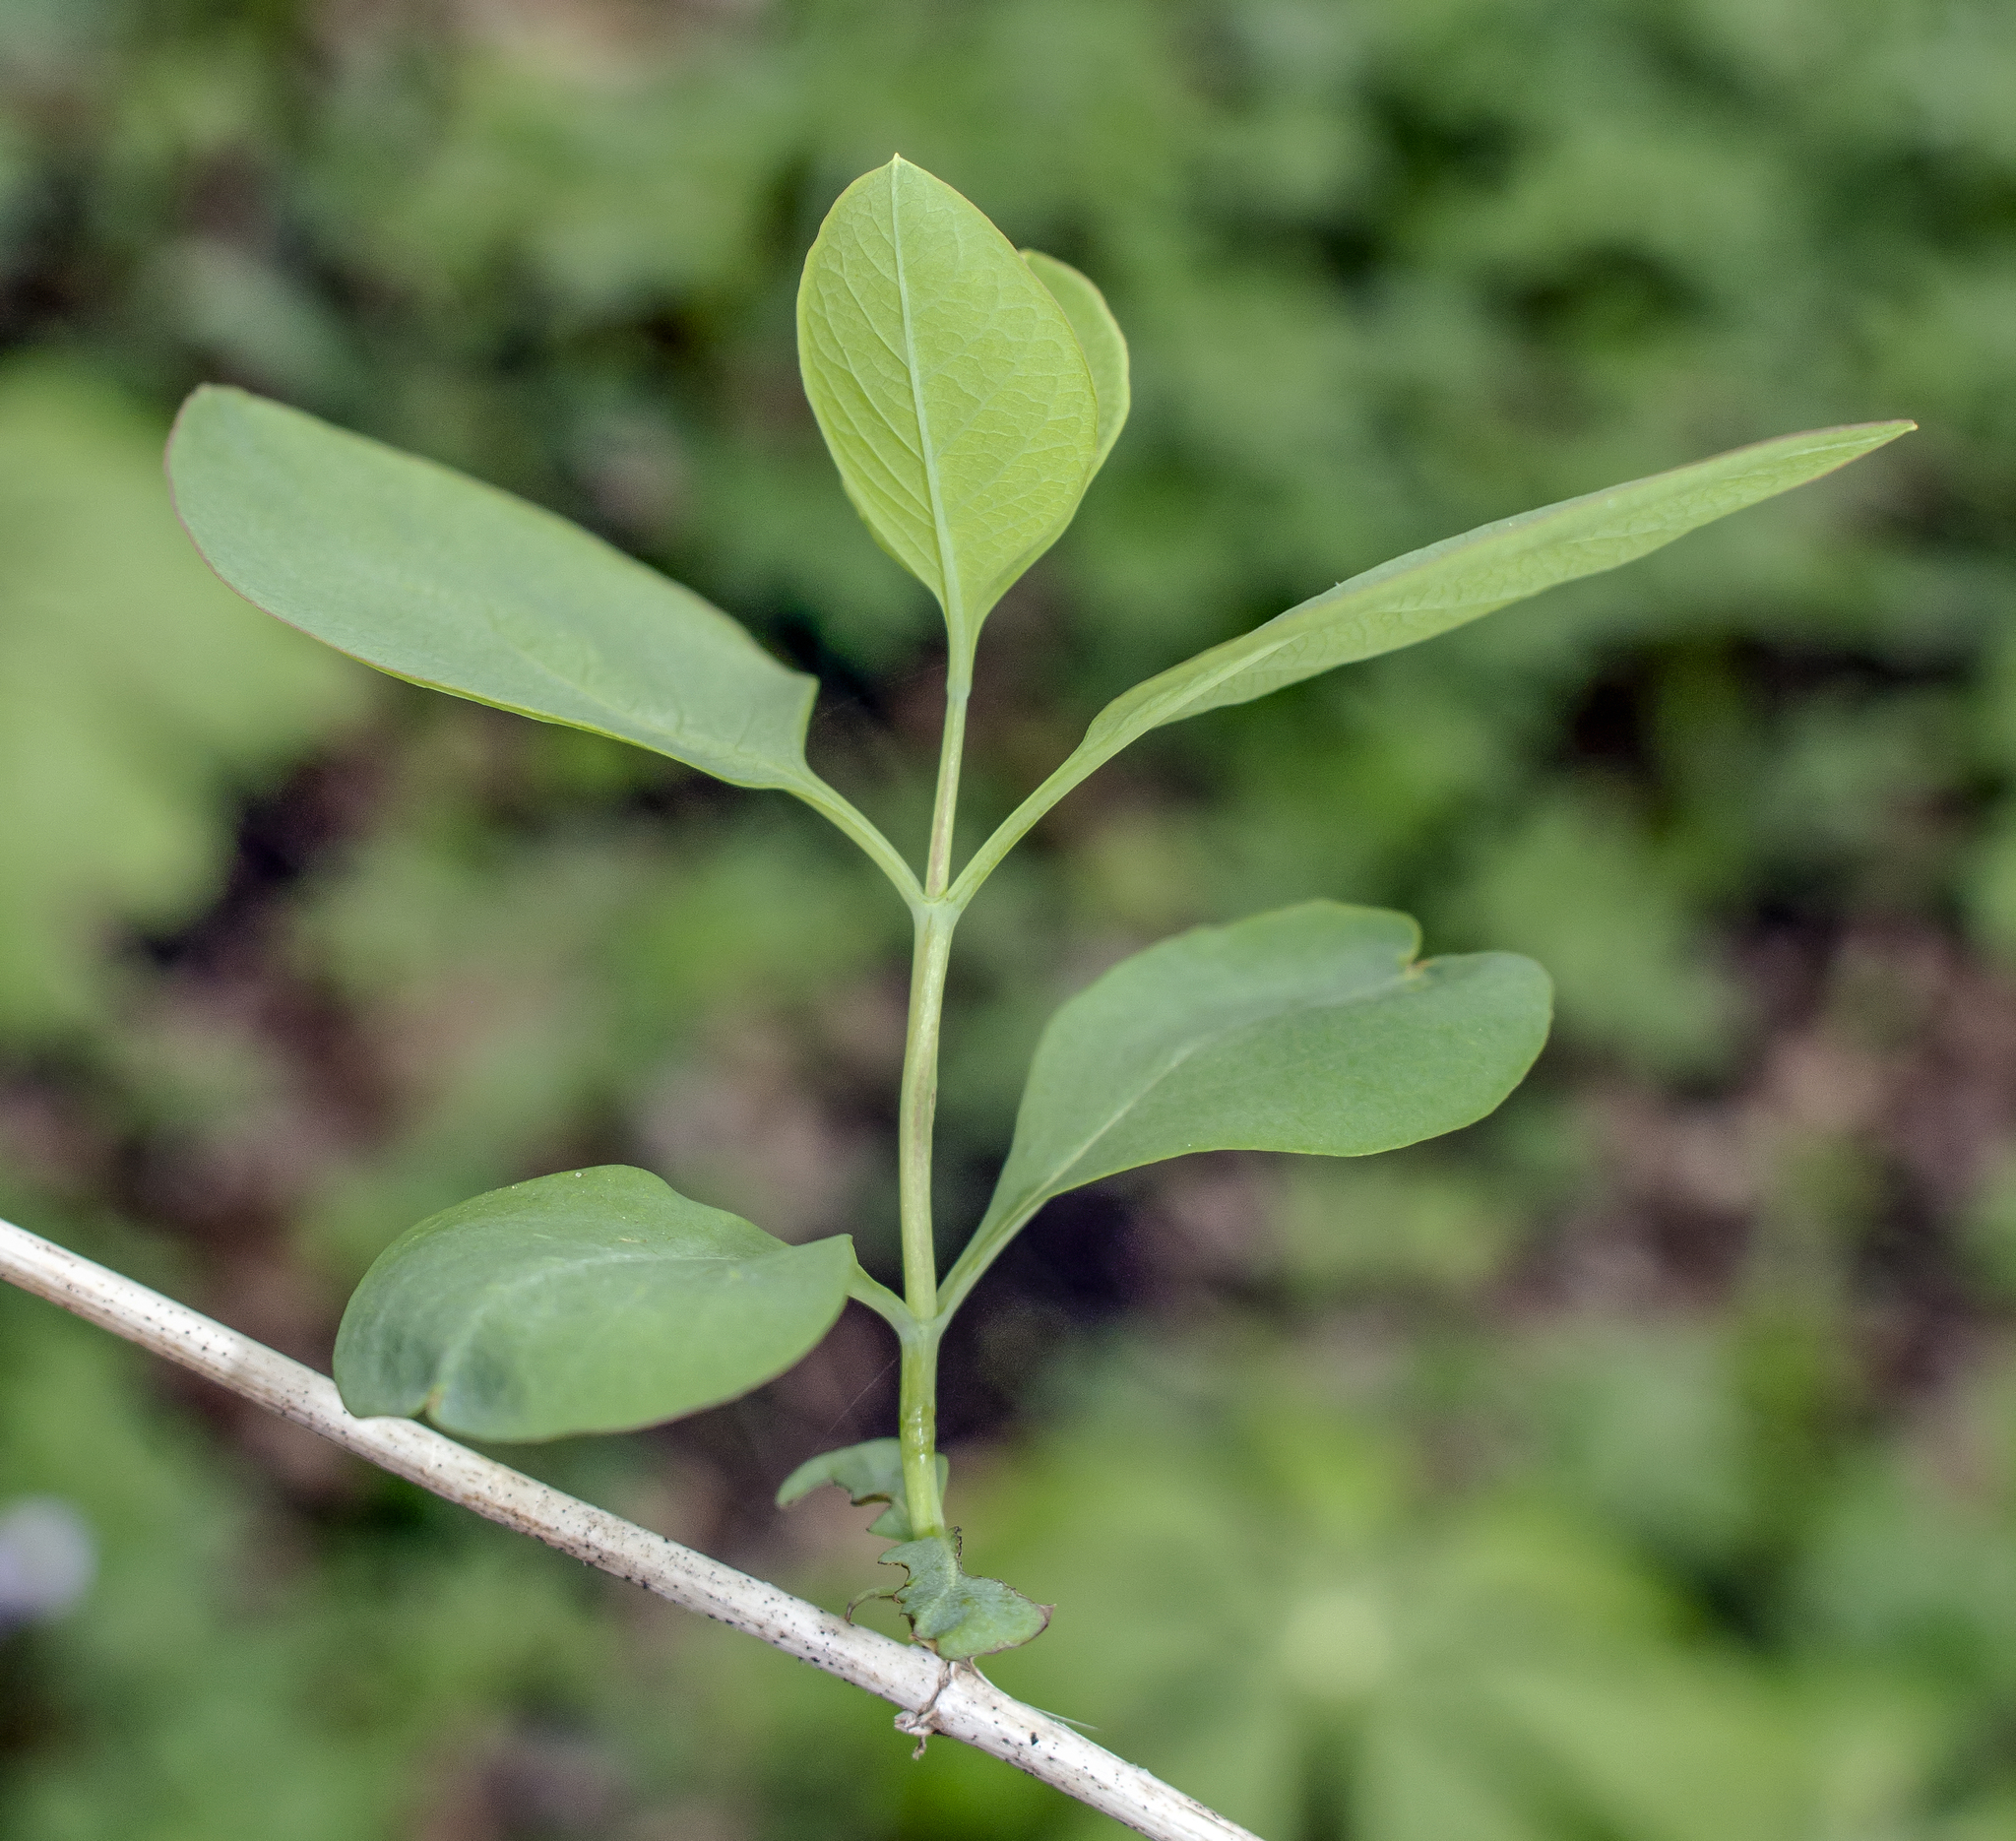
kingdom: Plantae
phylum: Tracheophyta
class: Magnoliopsida
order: Dipsacales
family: Caprifoliaceae
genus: Lonicera
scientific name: Lonicera reticulata
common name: Grape honeysuckle
